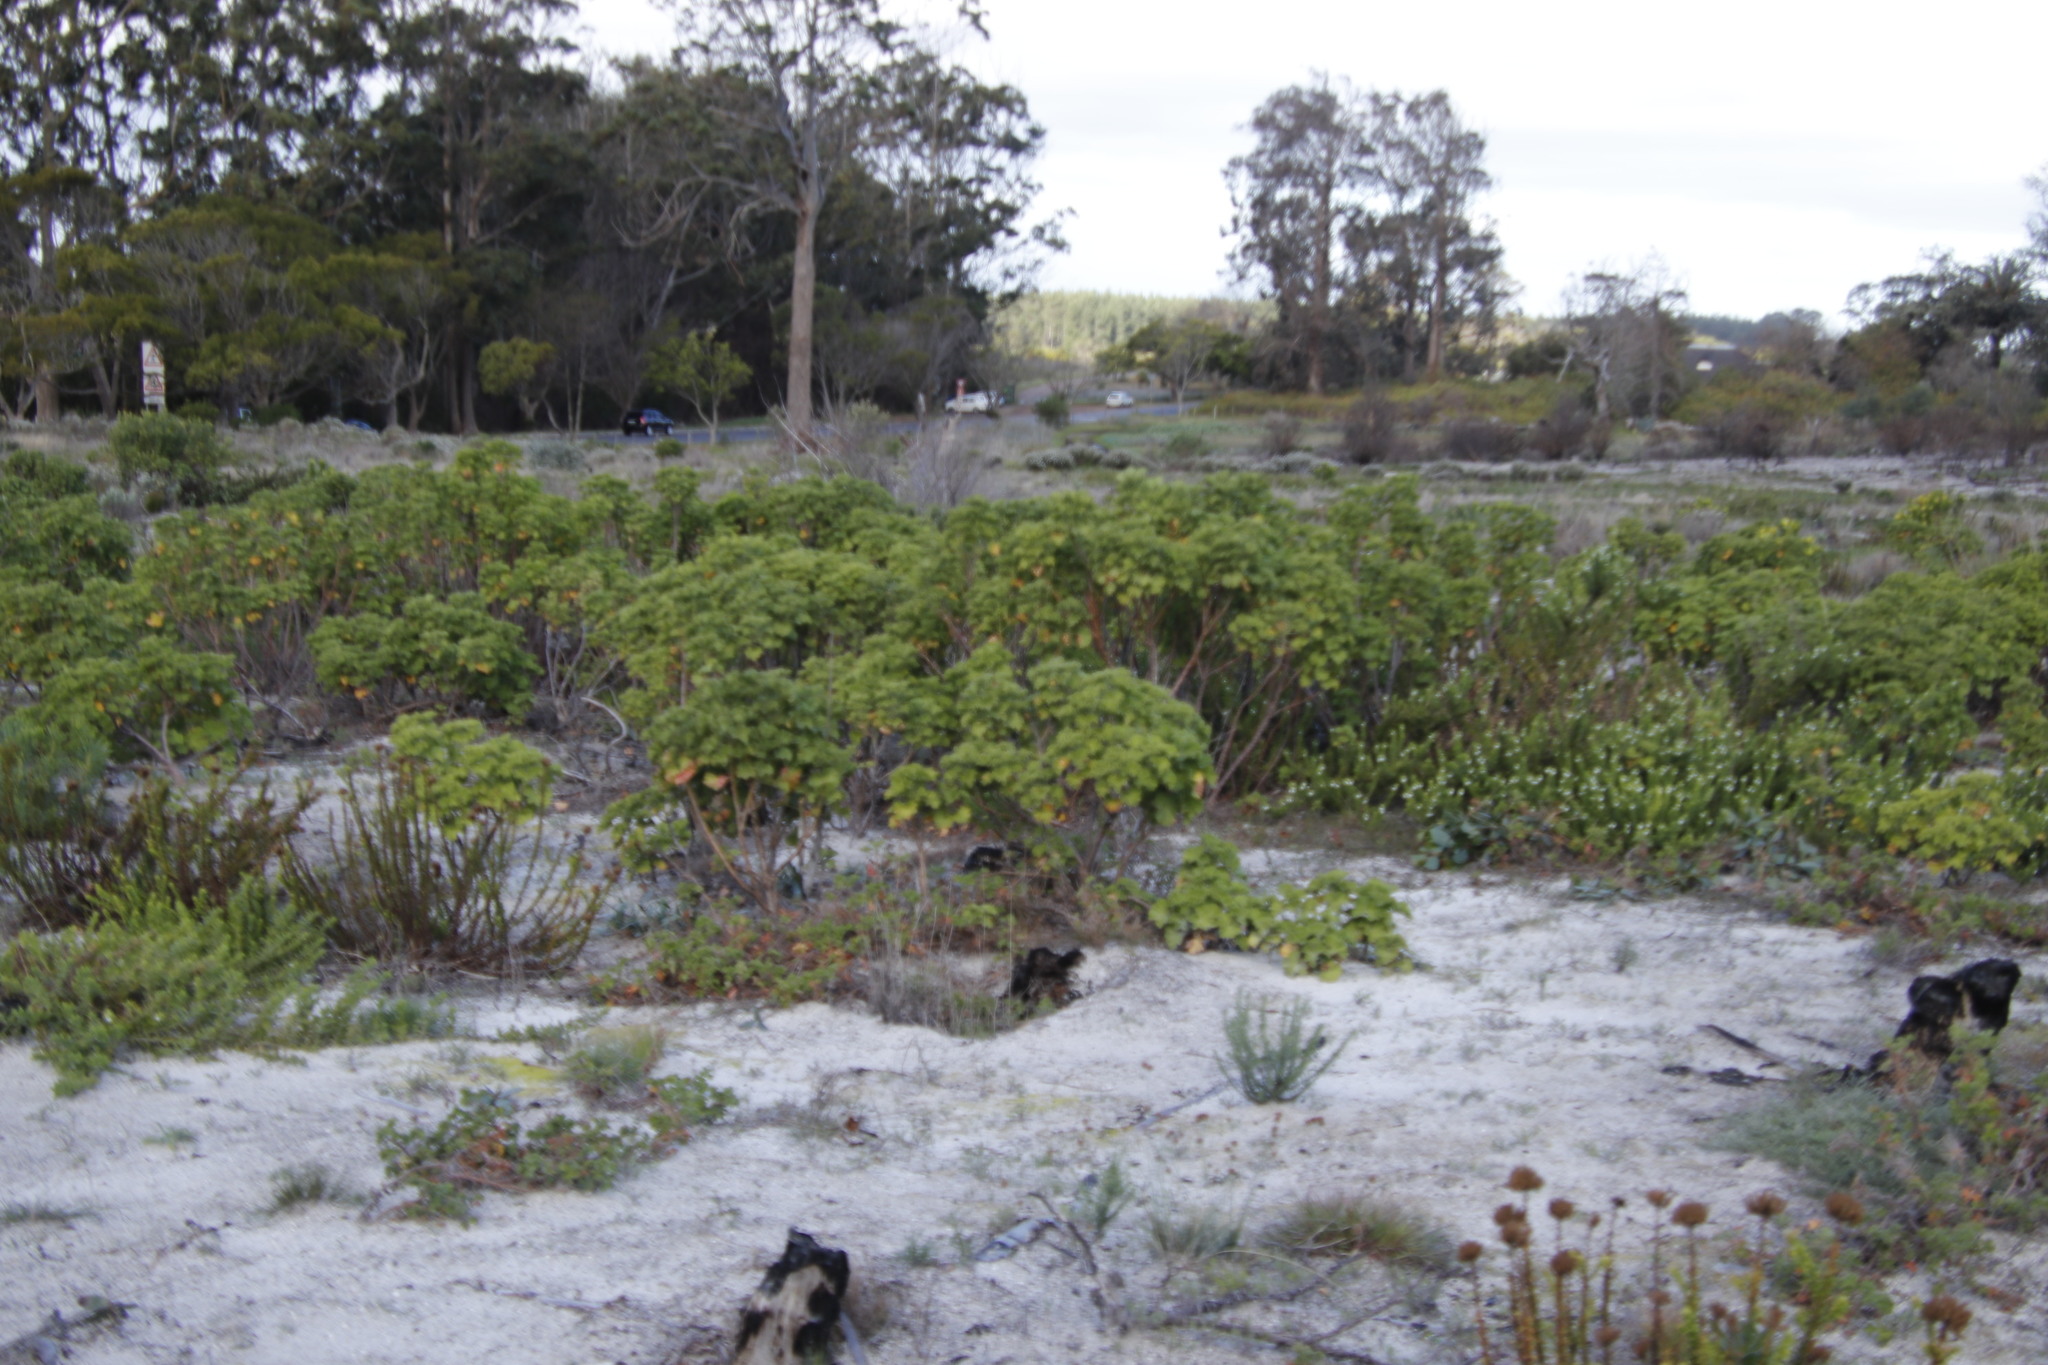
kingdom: Plantae
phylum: Tracheophyta
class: Magnoliopsida
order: Geraniales
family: Geraniaceae
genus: Pelargonium
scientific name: Pelargonium cucullatum
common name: Tree pelargonium
